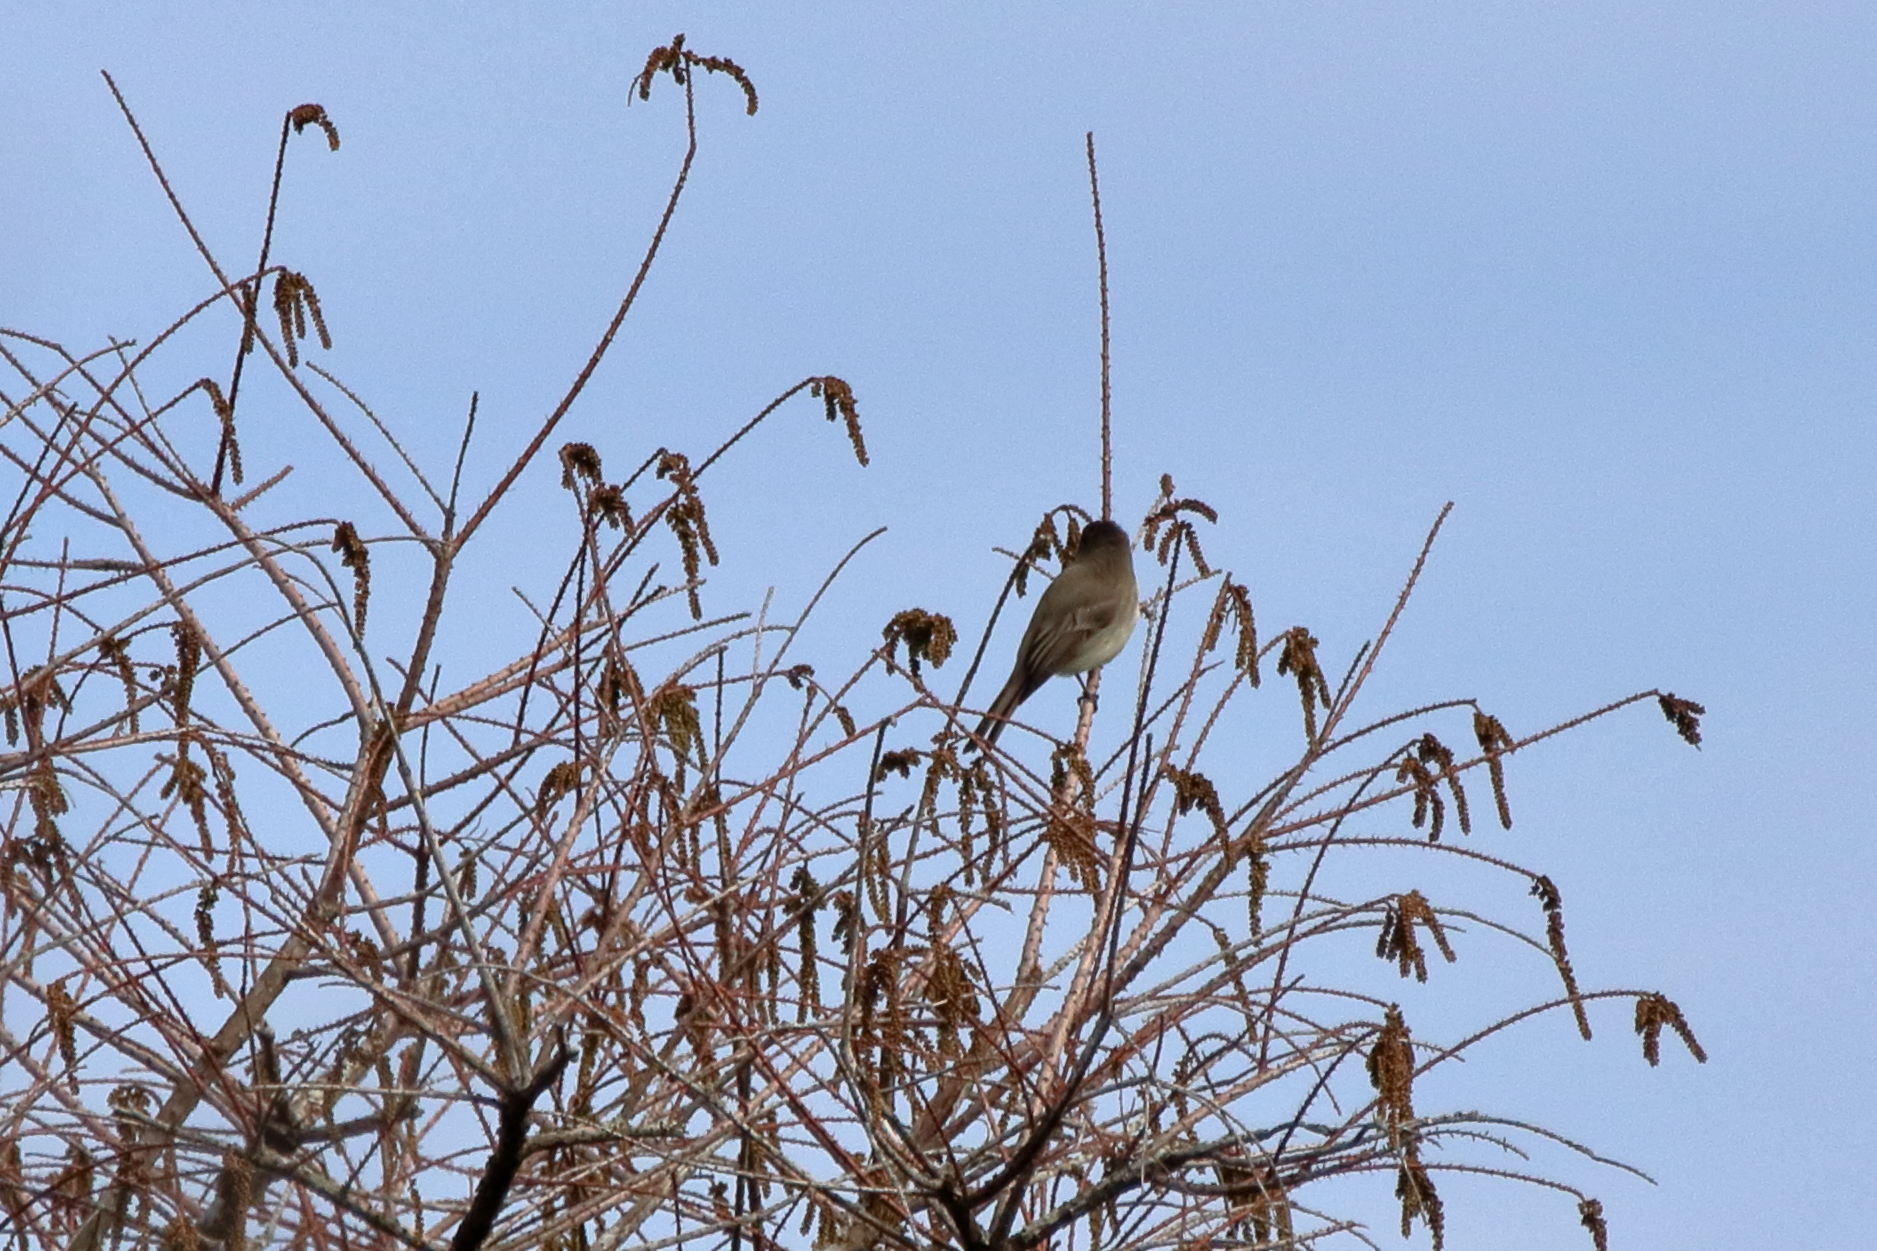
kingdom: Animalia
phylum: Chordata
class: Aves
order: Passeriformes
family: Tyrannidae
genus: Sayornis
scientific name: Sayornis phoebe
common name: Eastern phoebe
